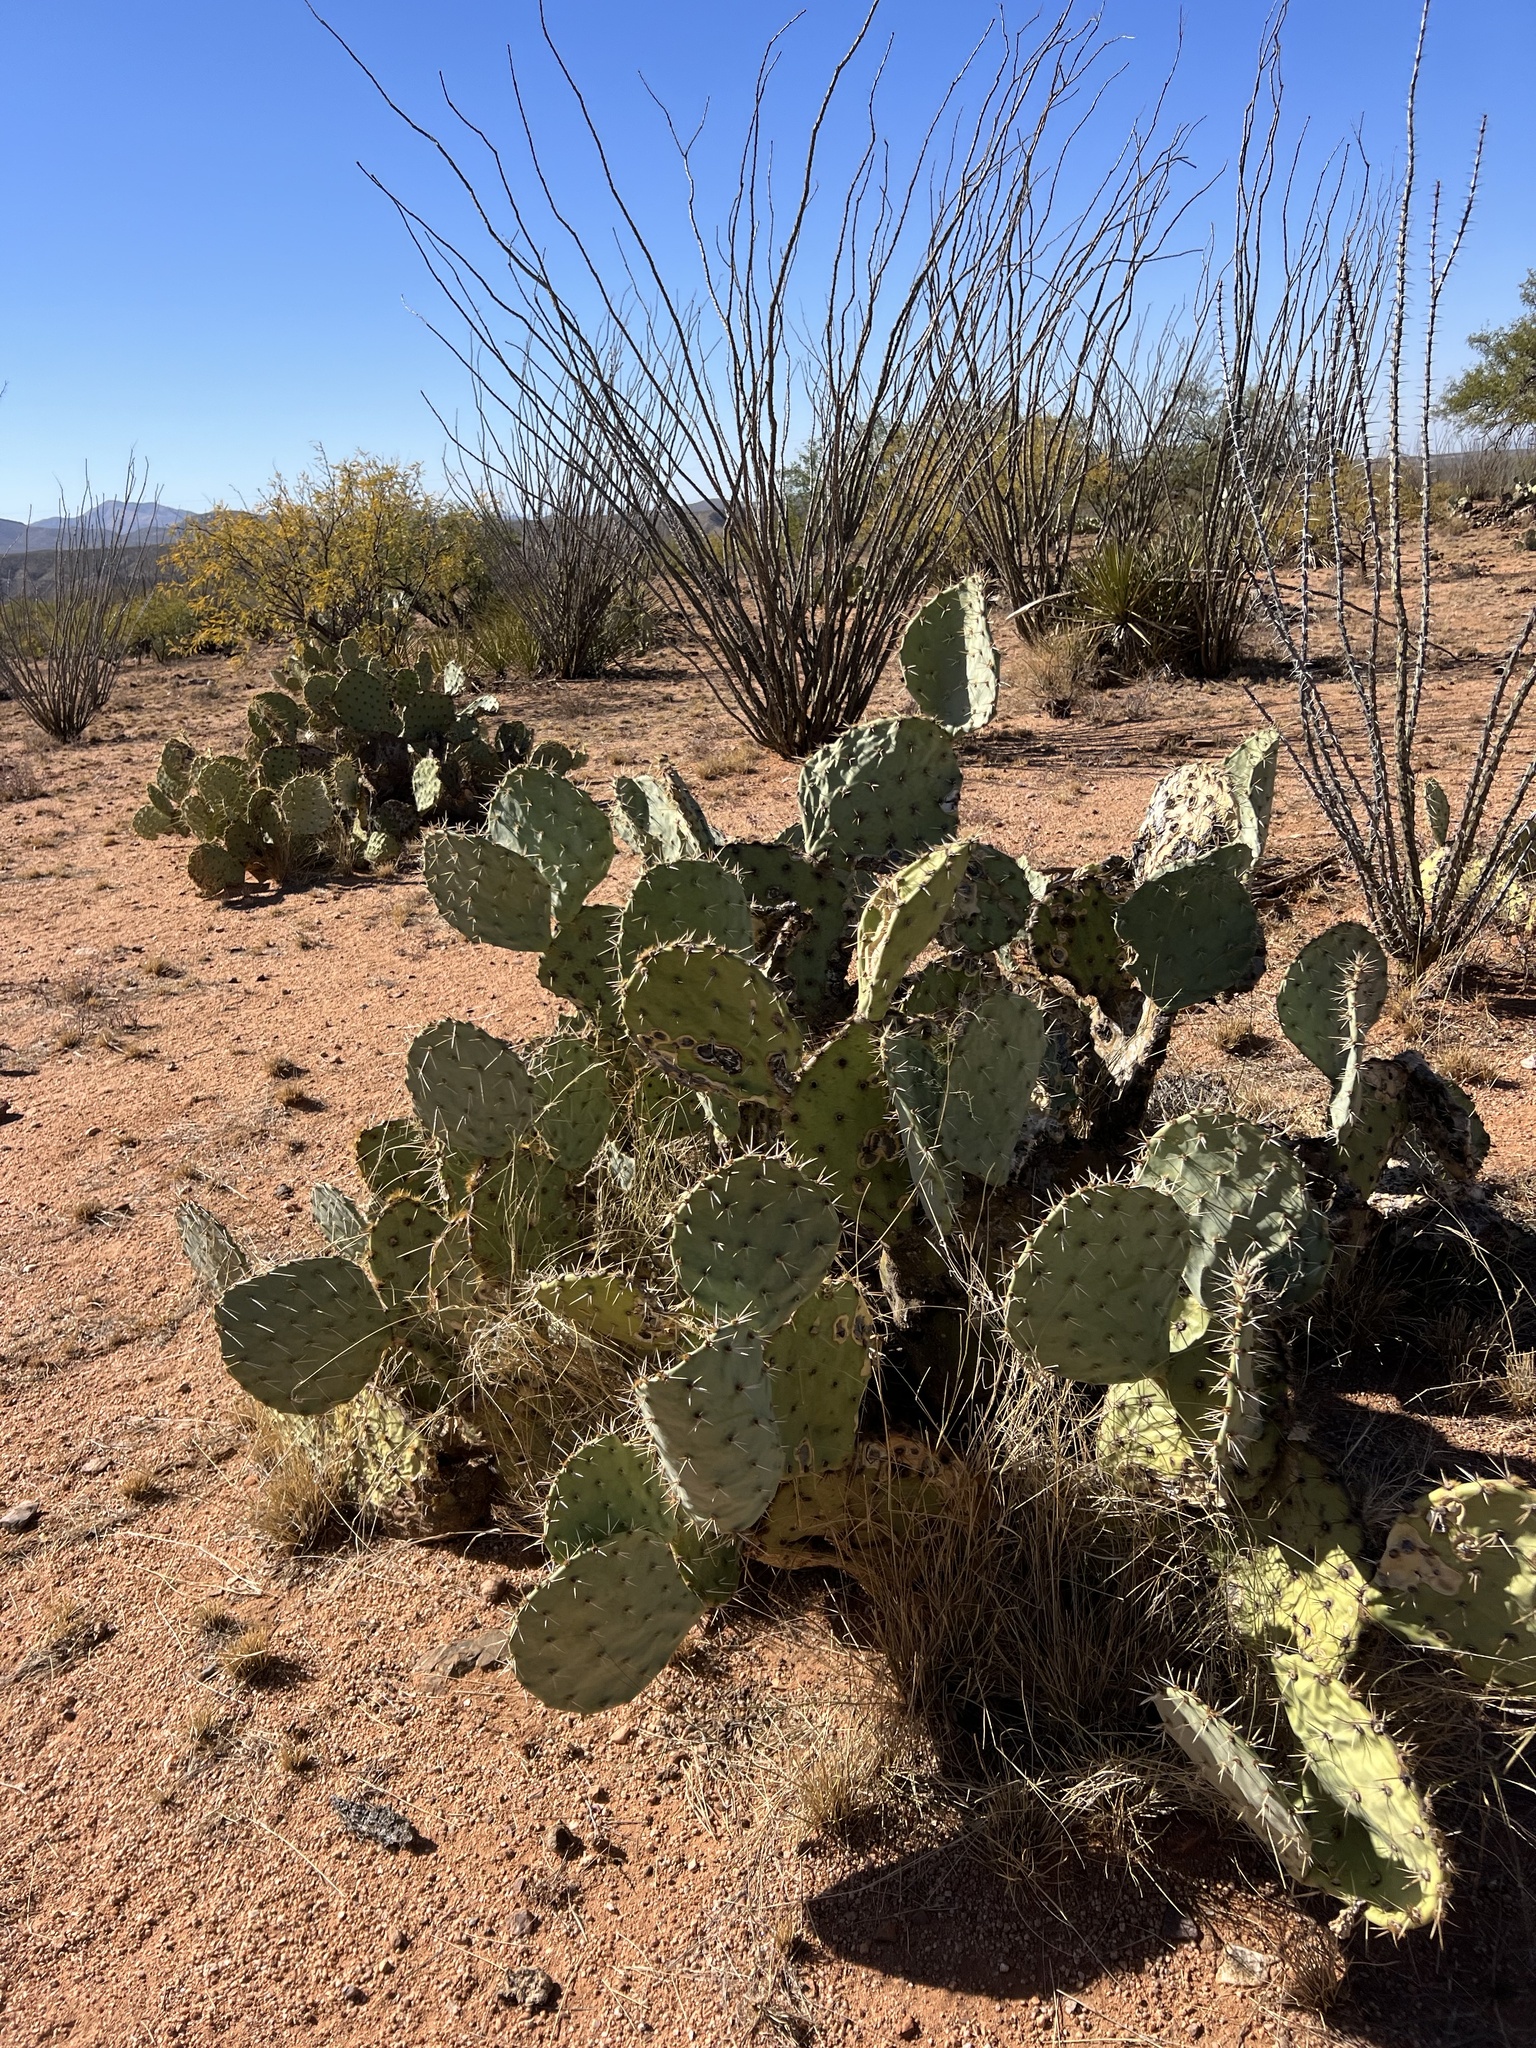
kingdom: Plantae
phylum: Tracheophyta
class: Magnoliopsida
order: Caryophyllales
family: Cactaceae
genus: Opuntia
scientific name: Opuntia engelmannii
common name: Cactus-apple
